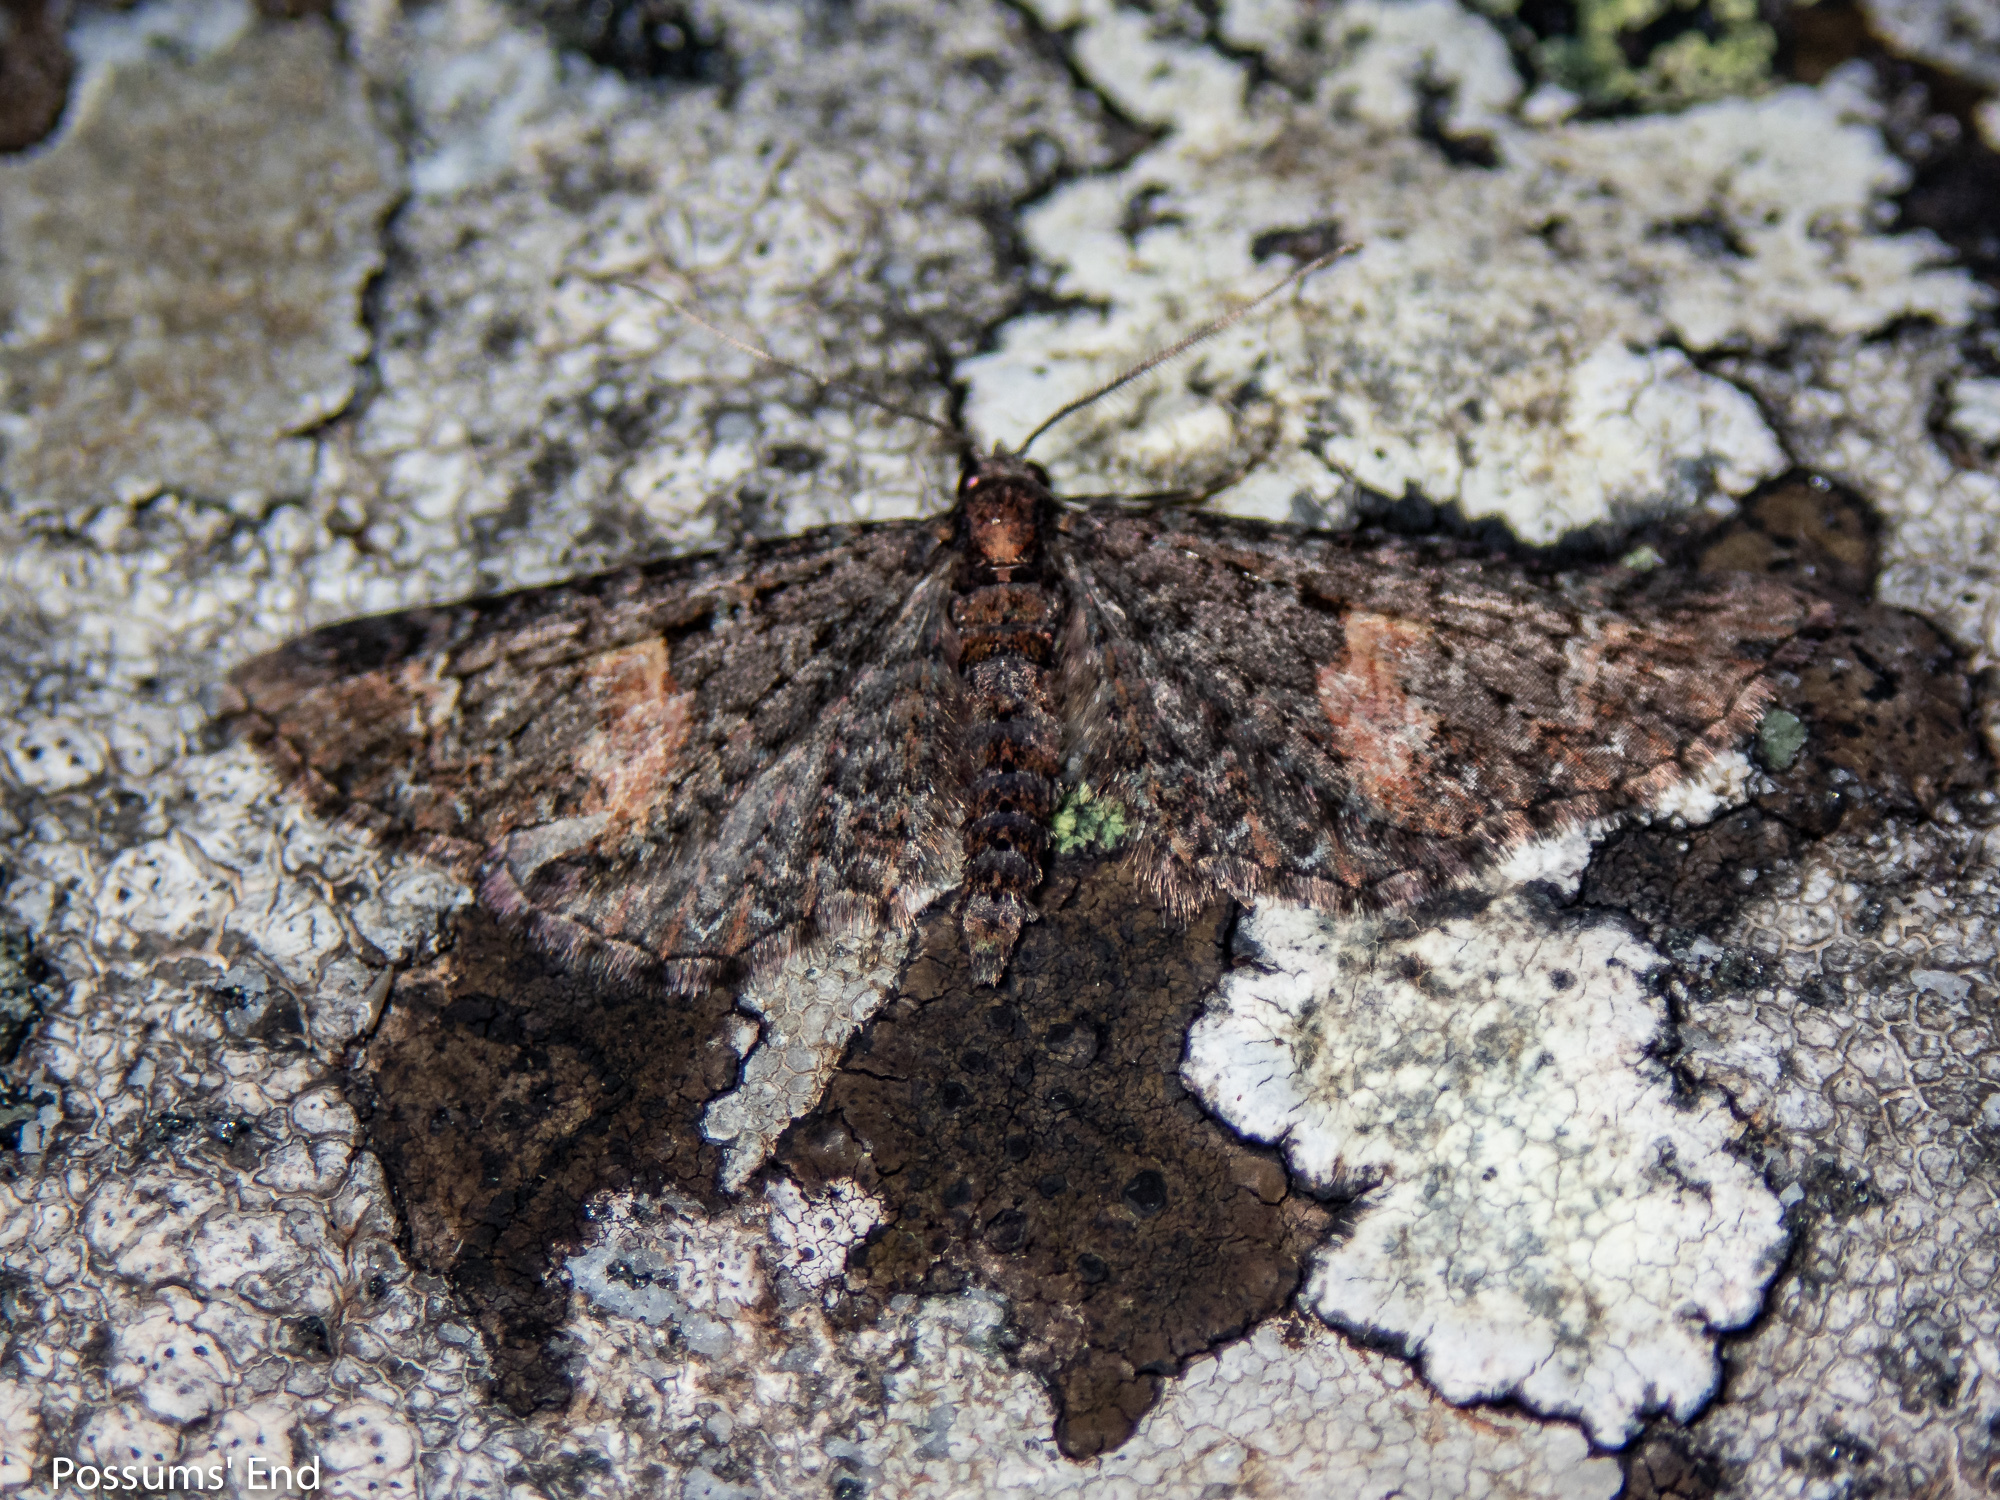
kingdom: Animalia
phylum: Arthropoda
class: Insecta
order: Lepidoptera
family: Geometridae
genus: Pasiphila
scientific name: Pasiphila rubella
